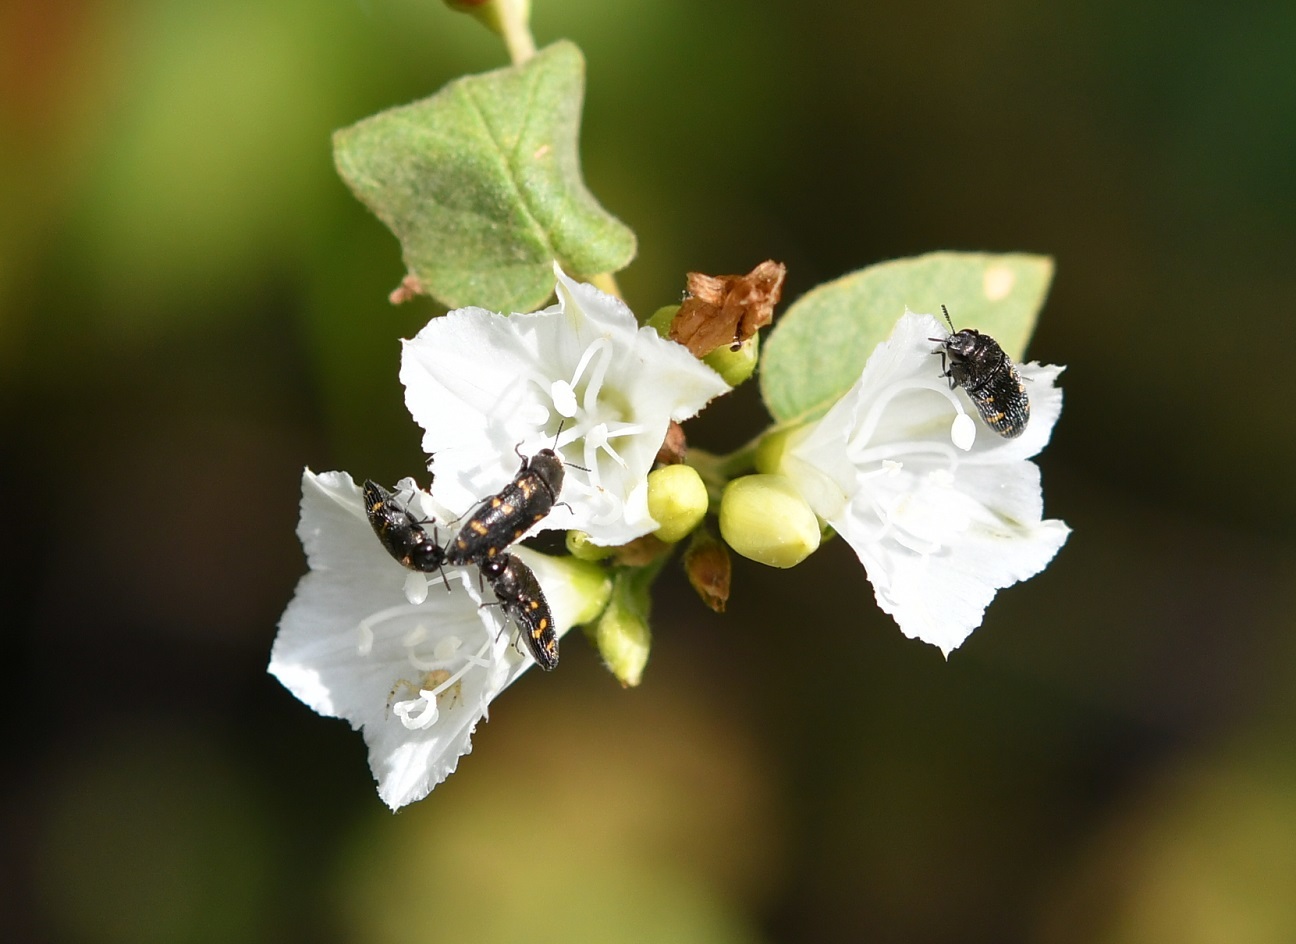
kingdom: Animalia
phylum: Arthropoda
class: Insecta
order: Coleoptera
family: Buprestidae
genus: Acmaeodera
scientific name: Acmaeodera loei
